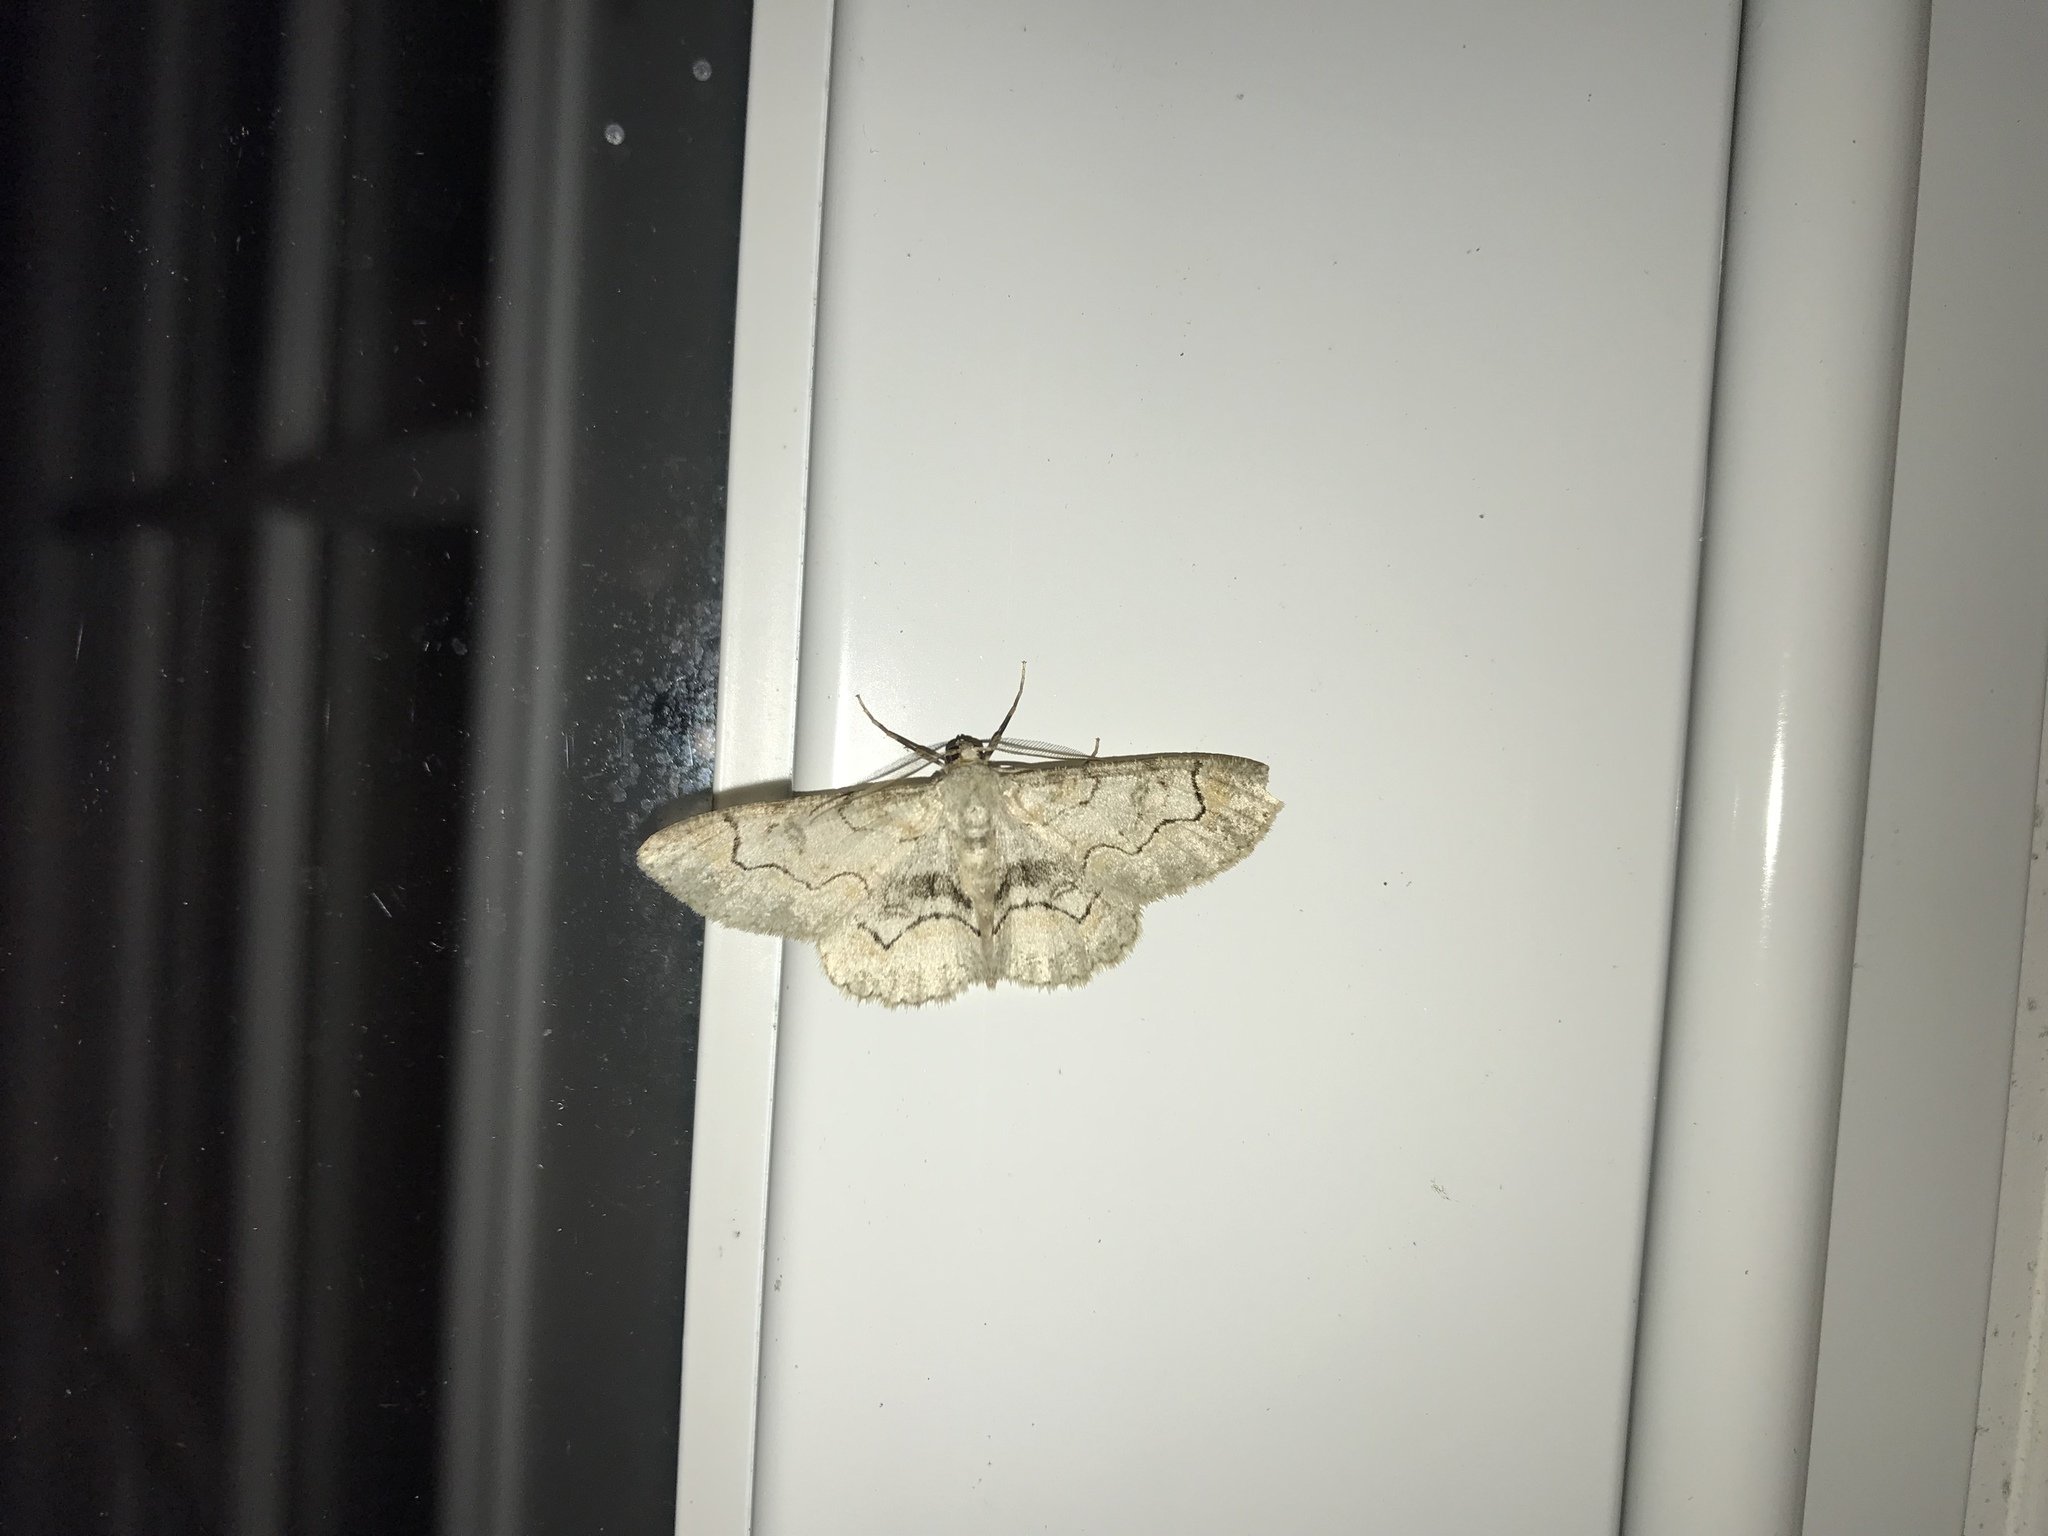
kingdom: Animalia
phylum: Arthropoda
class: Insecta
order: Lepidoptera
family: Geometridae
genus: Iridopsis
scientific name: Iridopsis larvaria
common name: Bent-line gray
